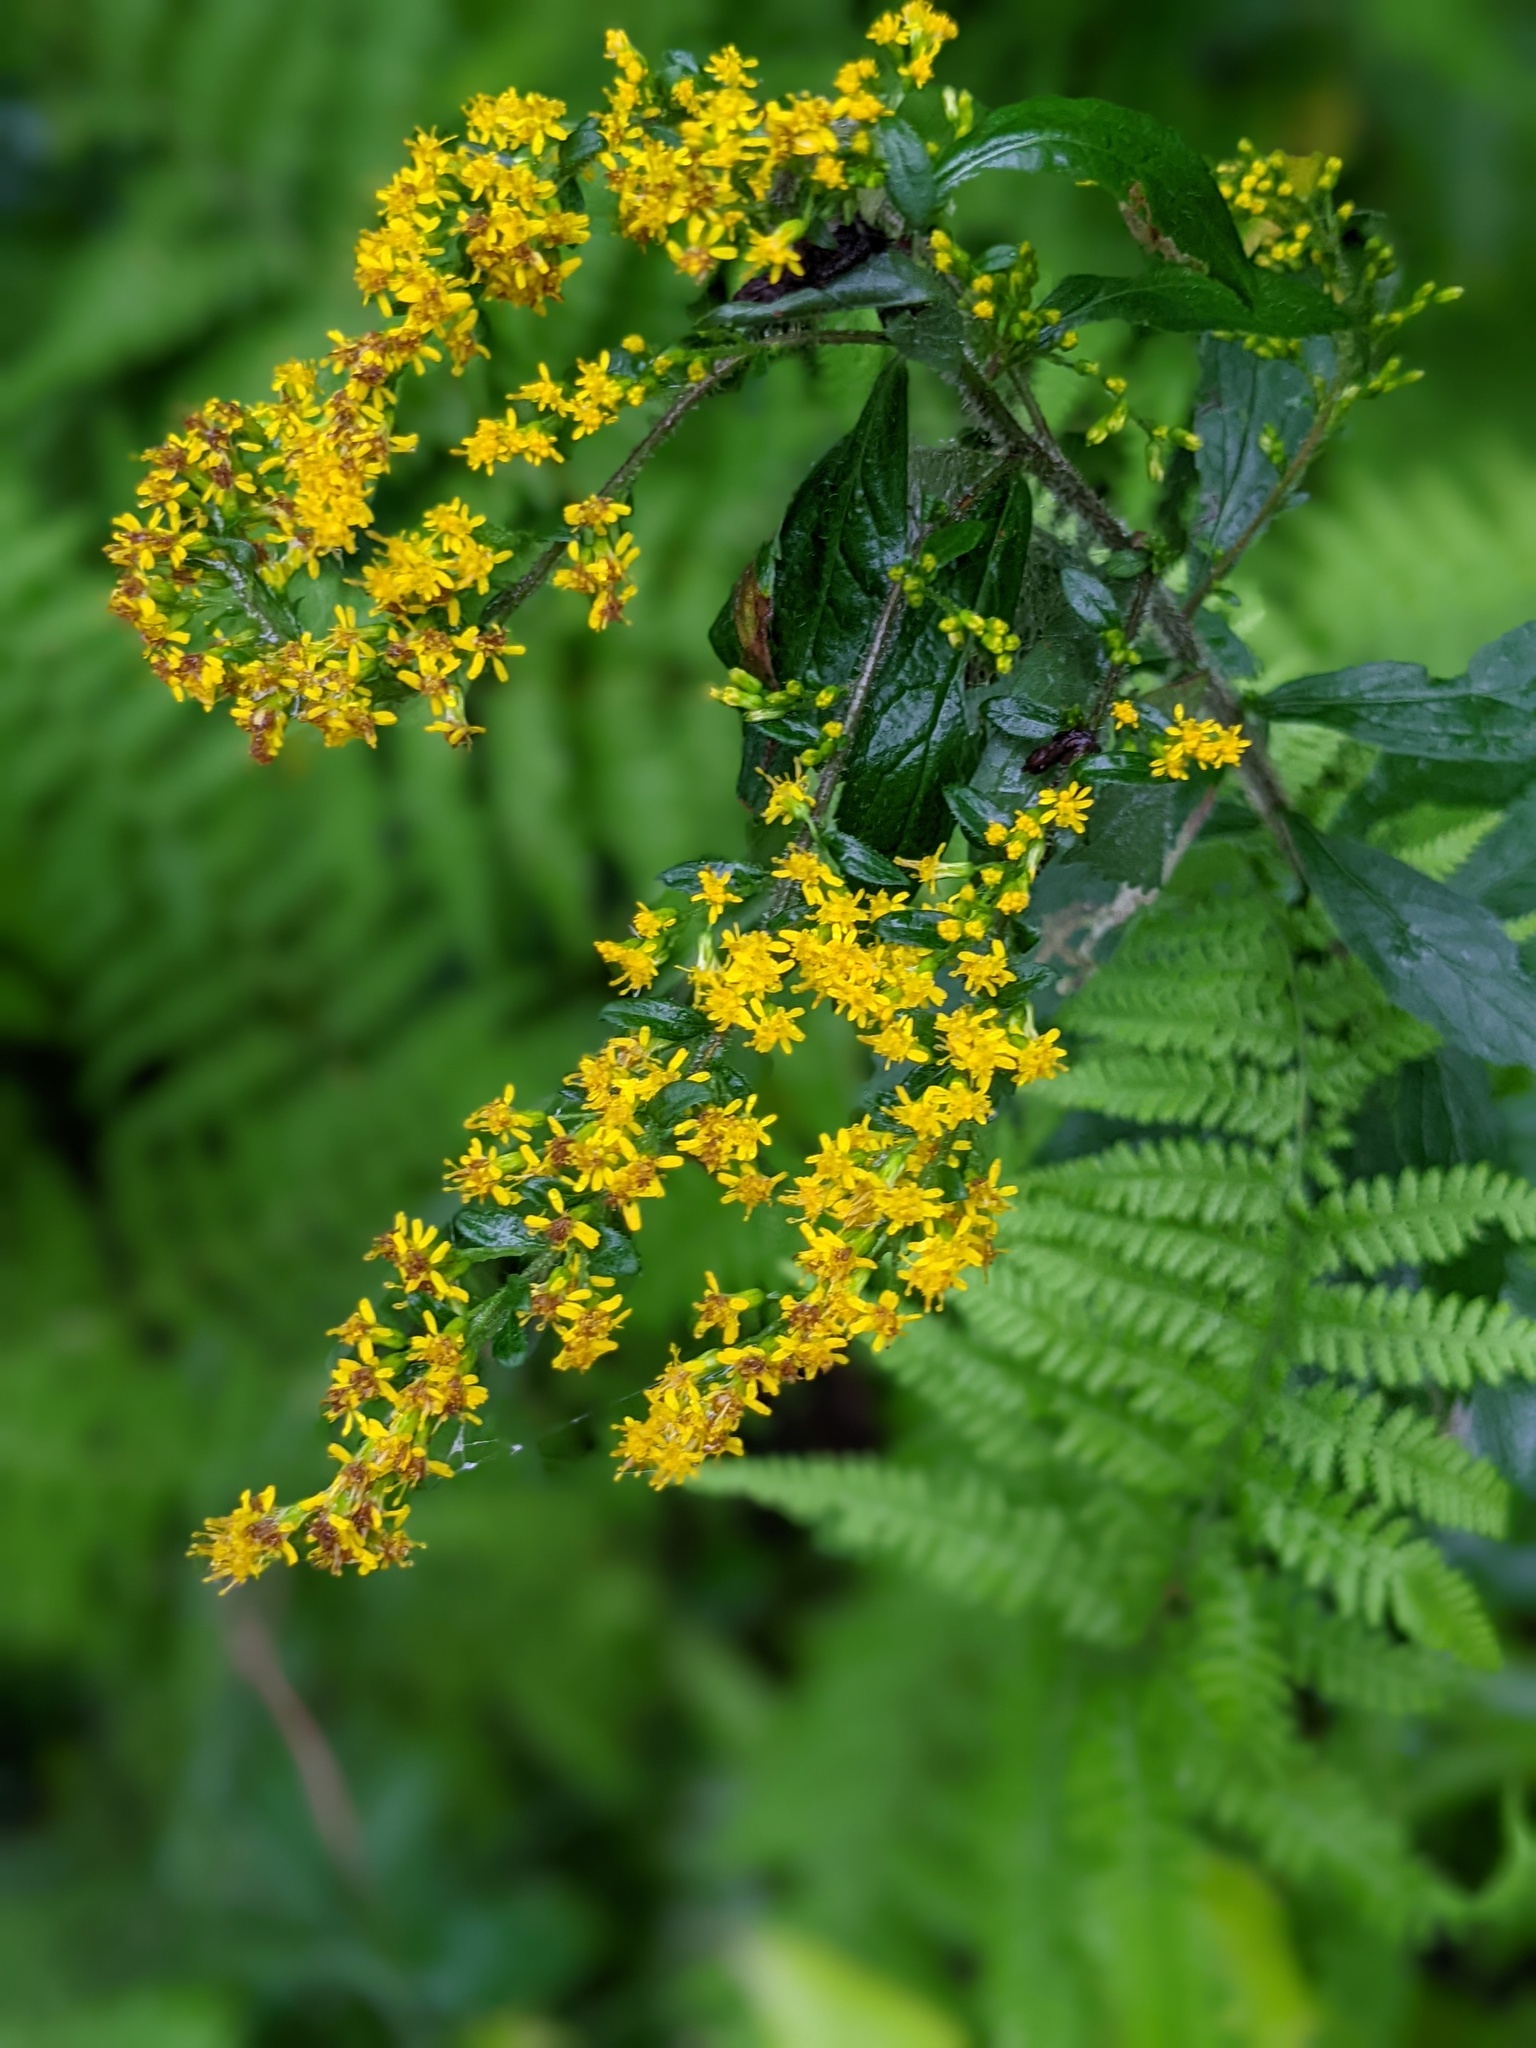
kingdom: Plantae
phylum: Tracheophyta
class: Magnoliopsida
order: Asterales
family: Asteraceae
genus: Solidago
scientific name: Solidago rugosa
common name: Rough-stemmed goldenrod
